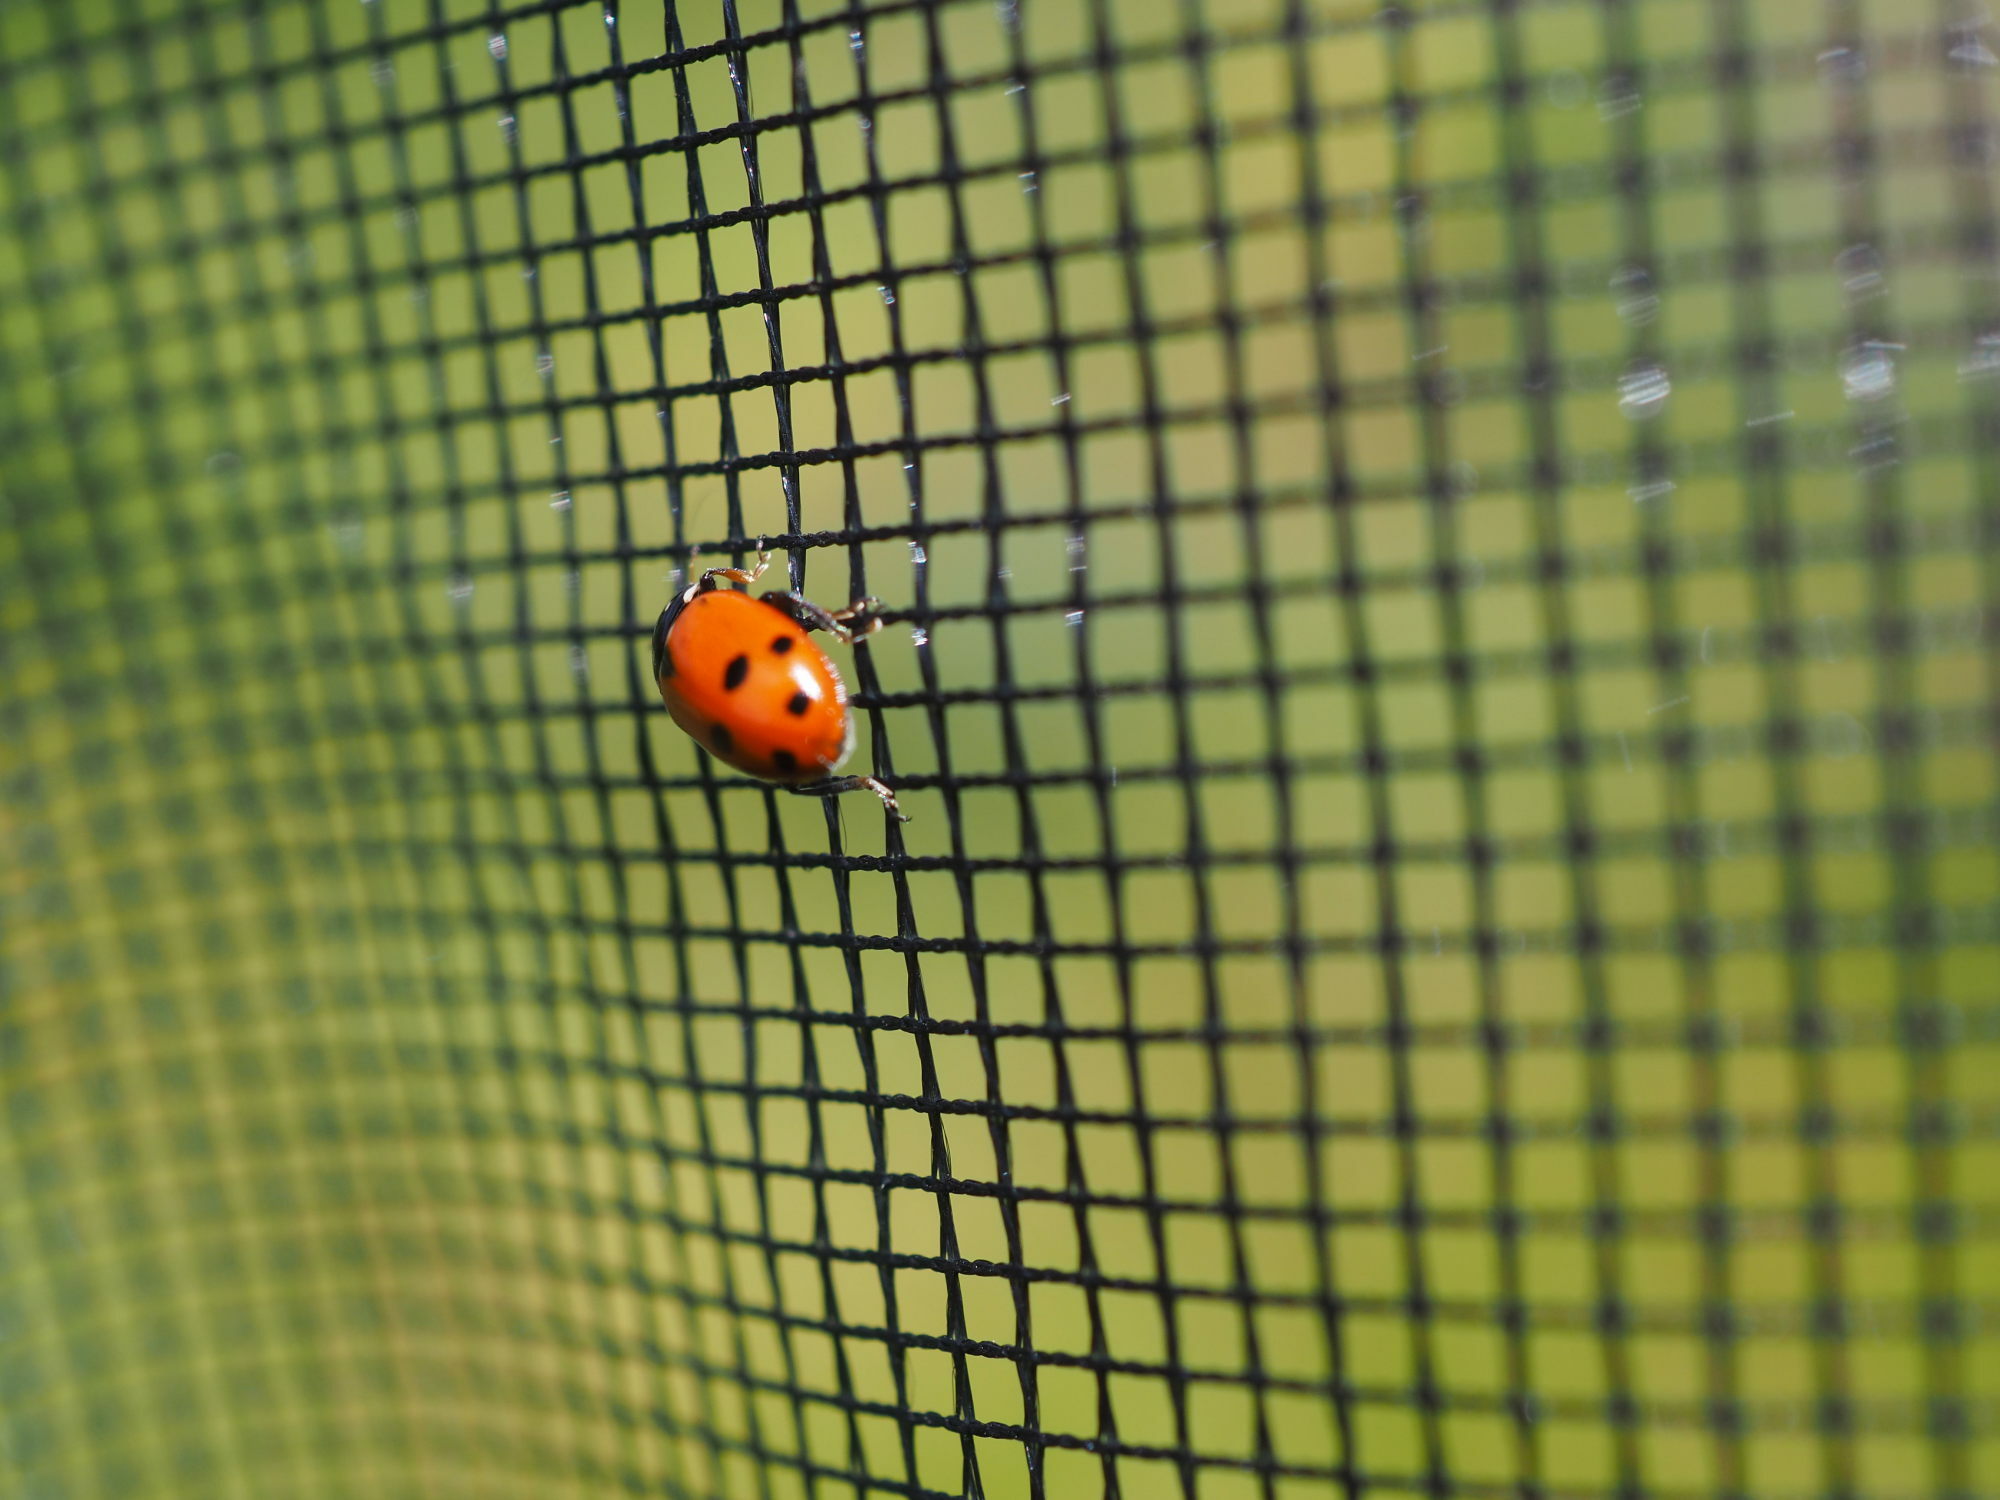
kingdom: Animalia
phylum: Arthropoda
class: Insecta
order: Coleoptera
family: Coccinellidae
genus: Hippodamia
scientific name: Hippodamia variegata
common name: Ladybird beetle
